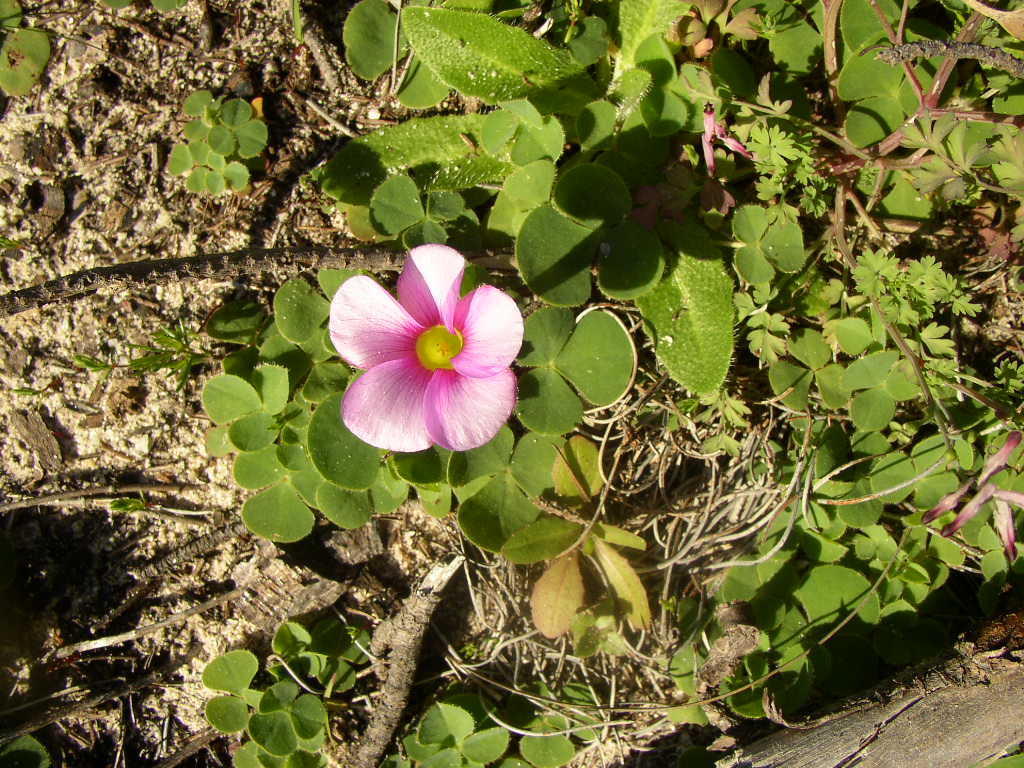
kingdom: Plantae
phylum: Tracheophyta
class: Magnoliopsida
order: Oxalidales
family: Oxalidaceae
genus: Oxalis
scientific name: Oxalis purpurea
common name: Purple woodsorrel
